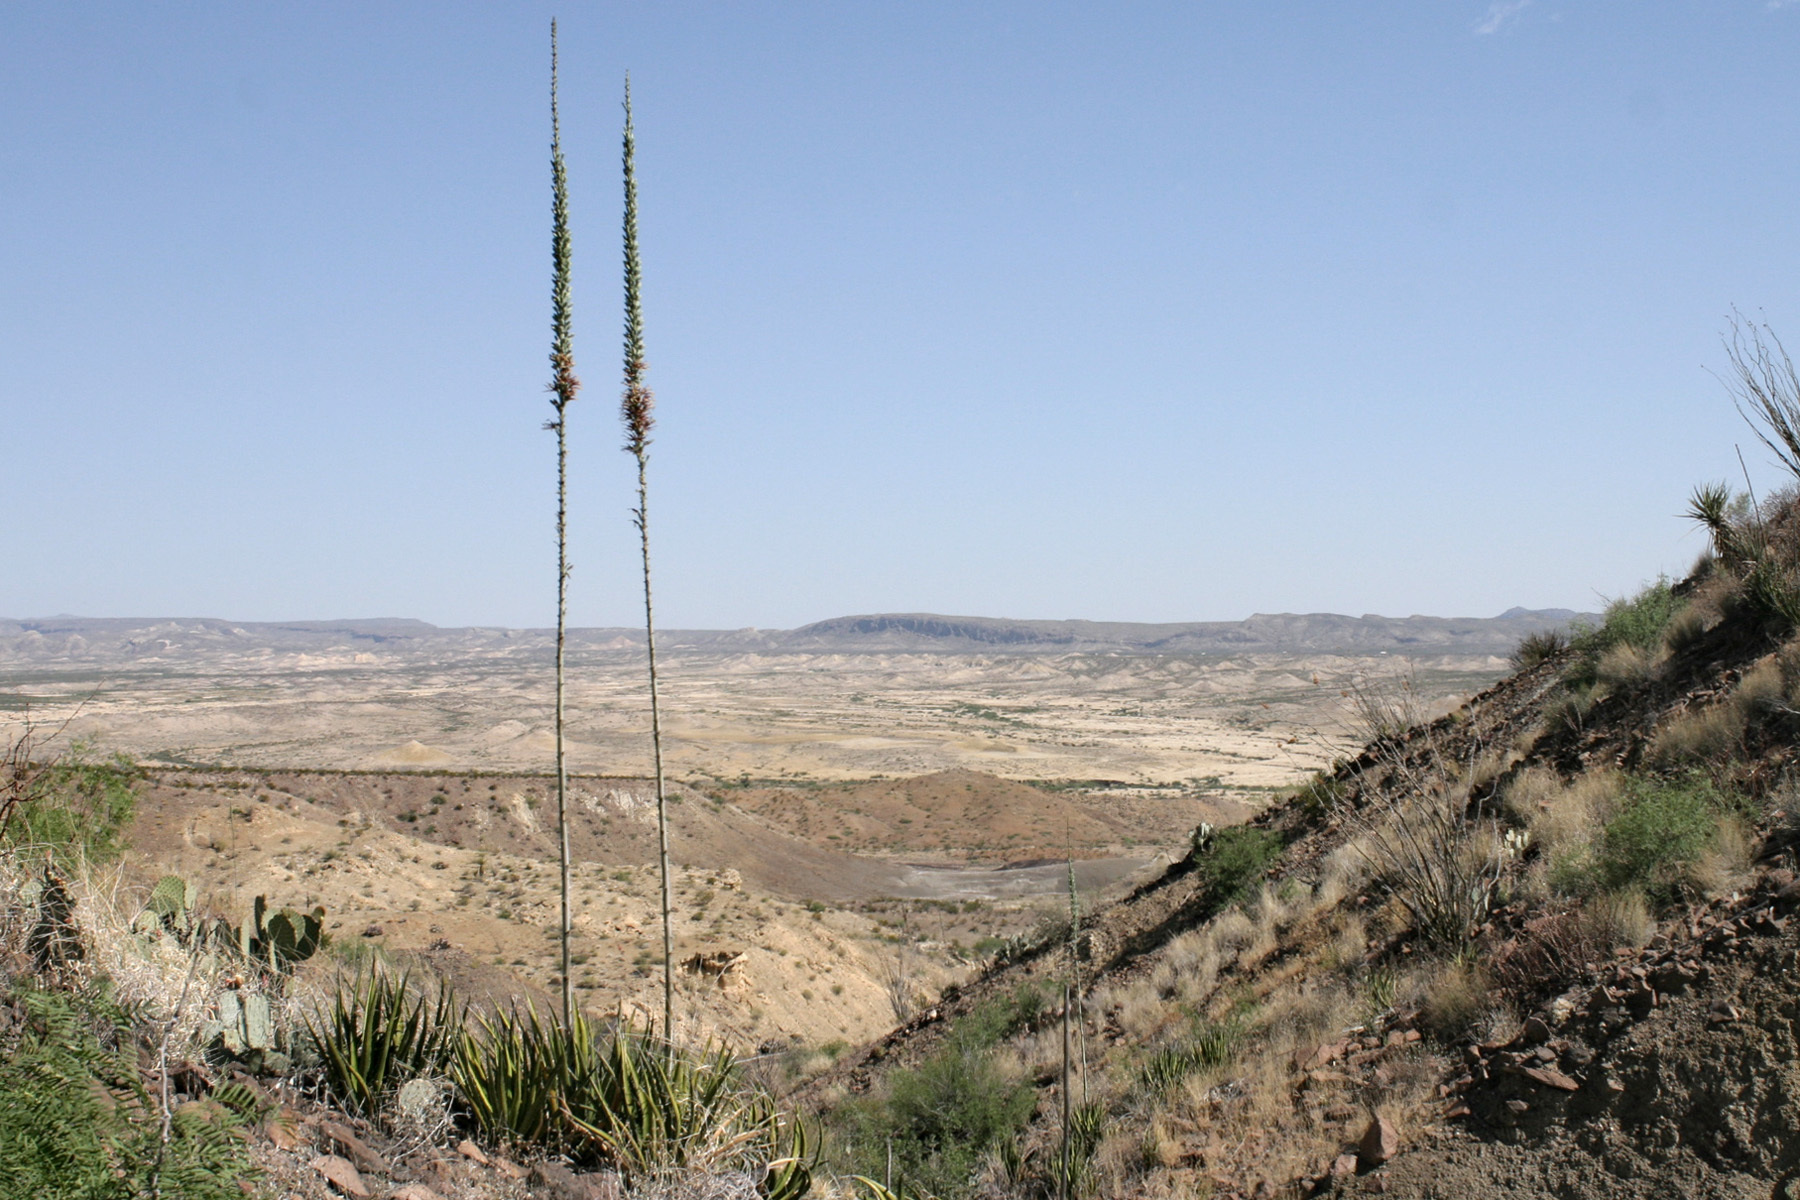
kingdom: Plantae
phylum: Tracheophyta
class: Liliopsida
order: Asparagales
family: Asparagaceae
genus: Agave
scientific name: Agave lechuguilla
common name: Lecheguilla agave
